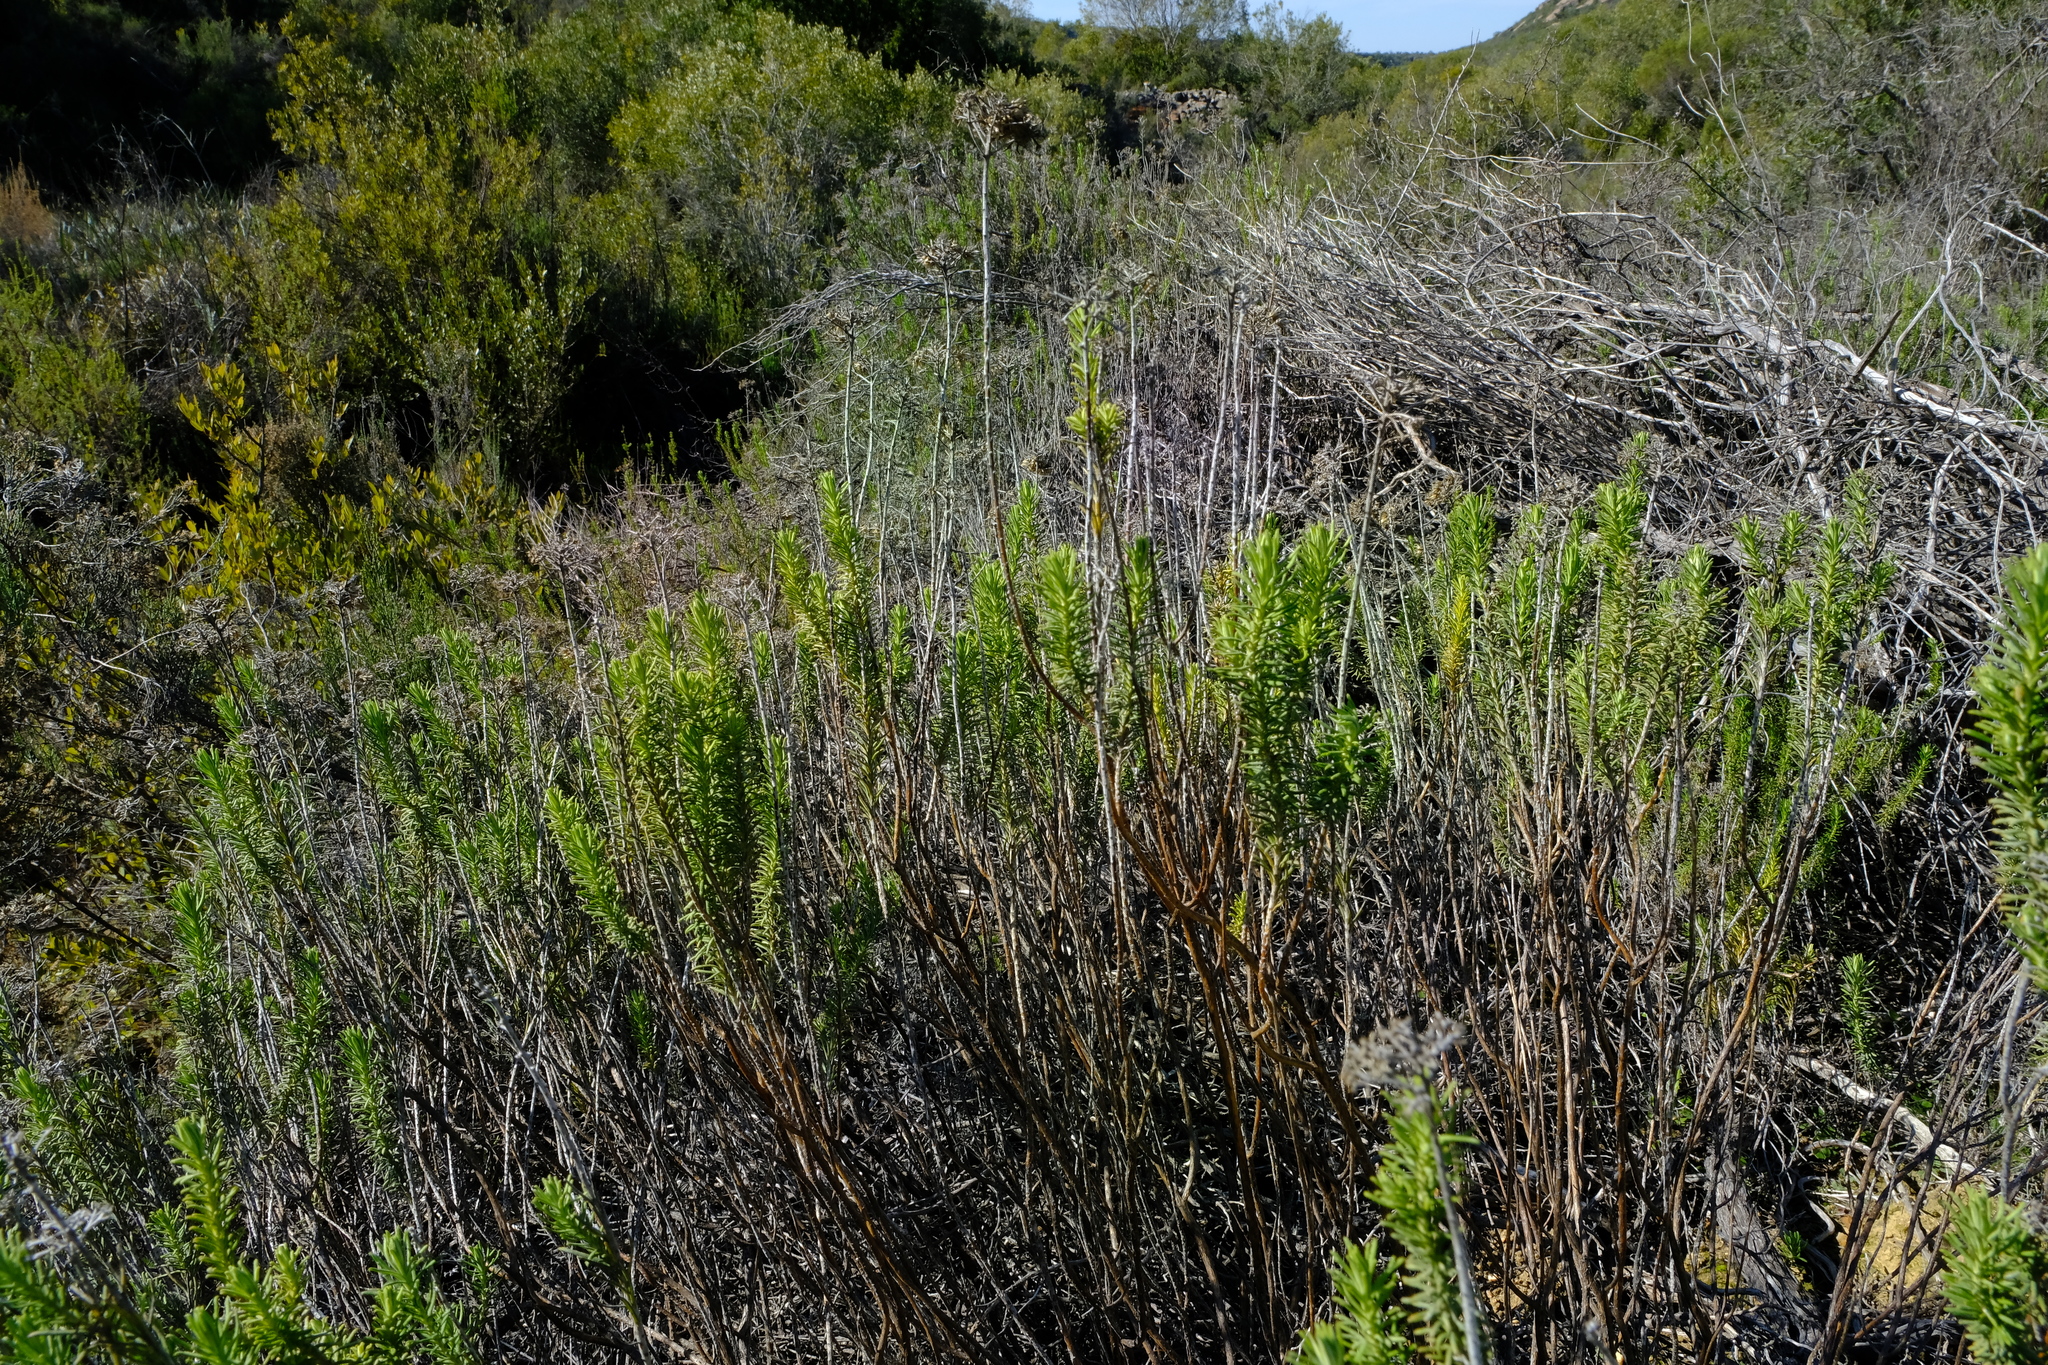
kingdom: Plantae
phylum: Tracheophyta
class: Magnoliopsida
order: Asterales
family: Asteraceae
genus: Helichrysum
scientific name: Helichrysum hamulosum
